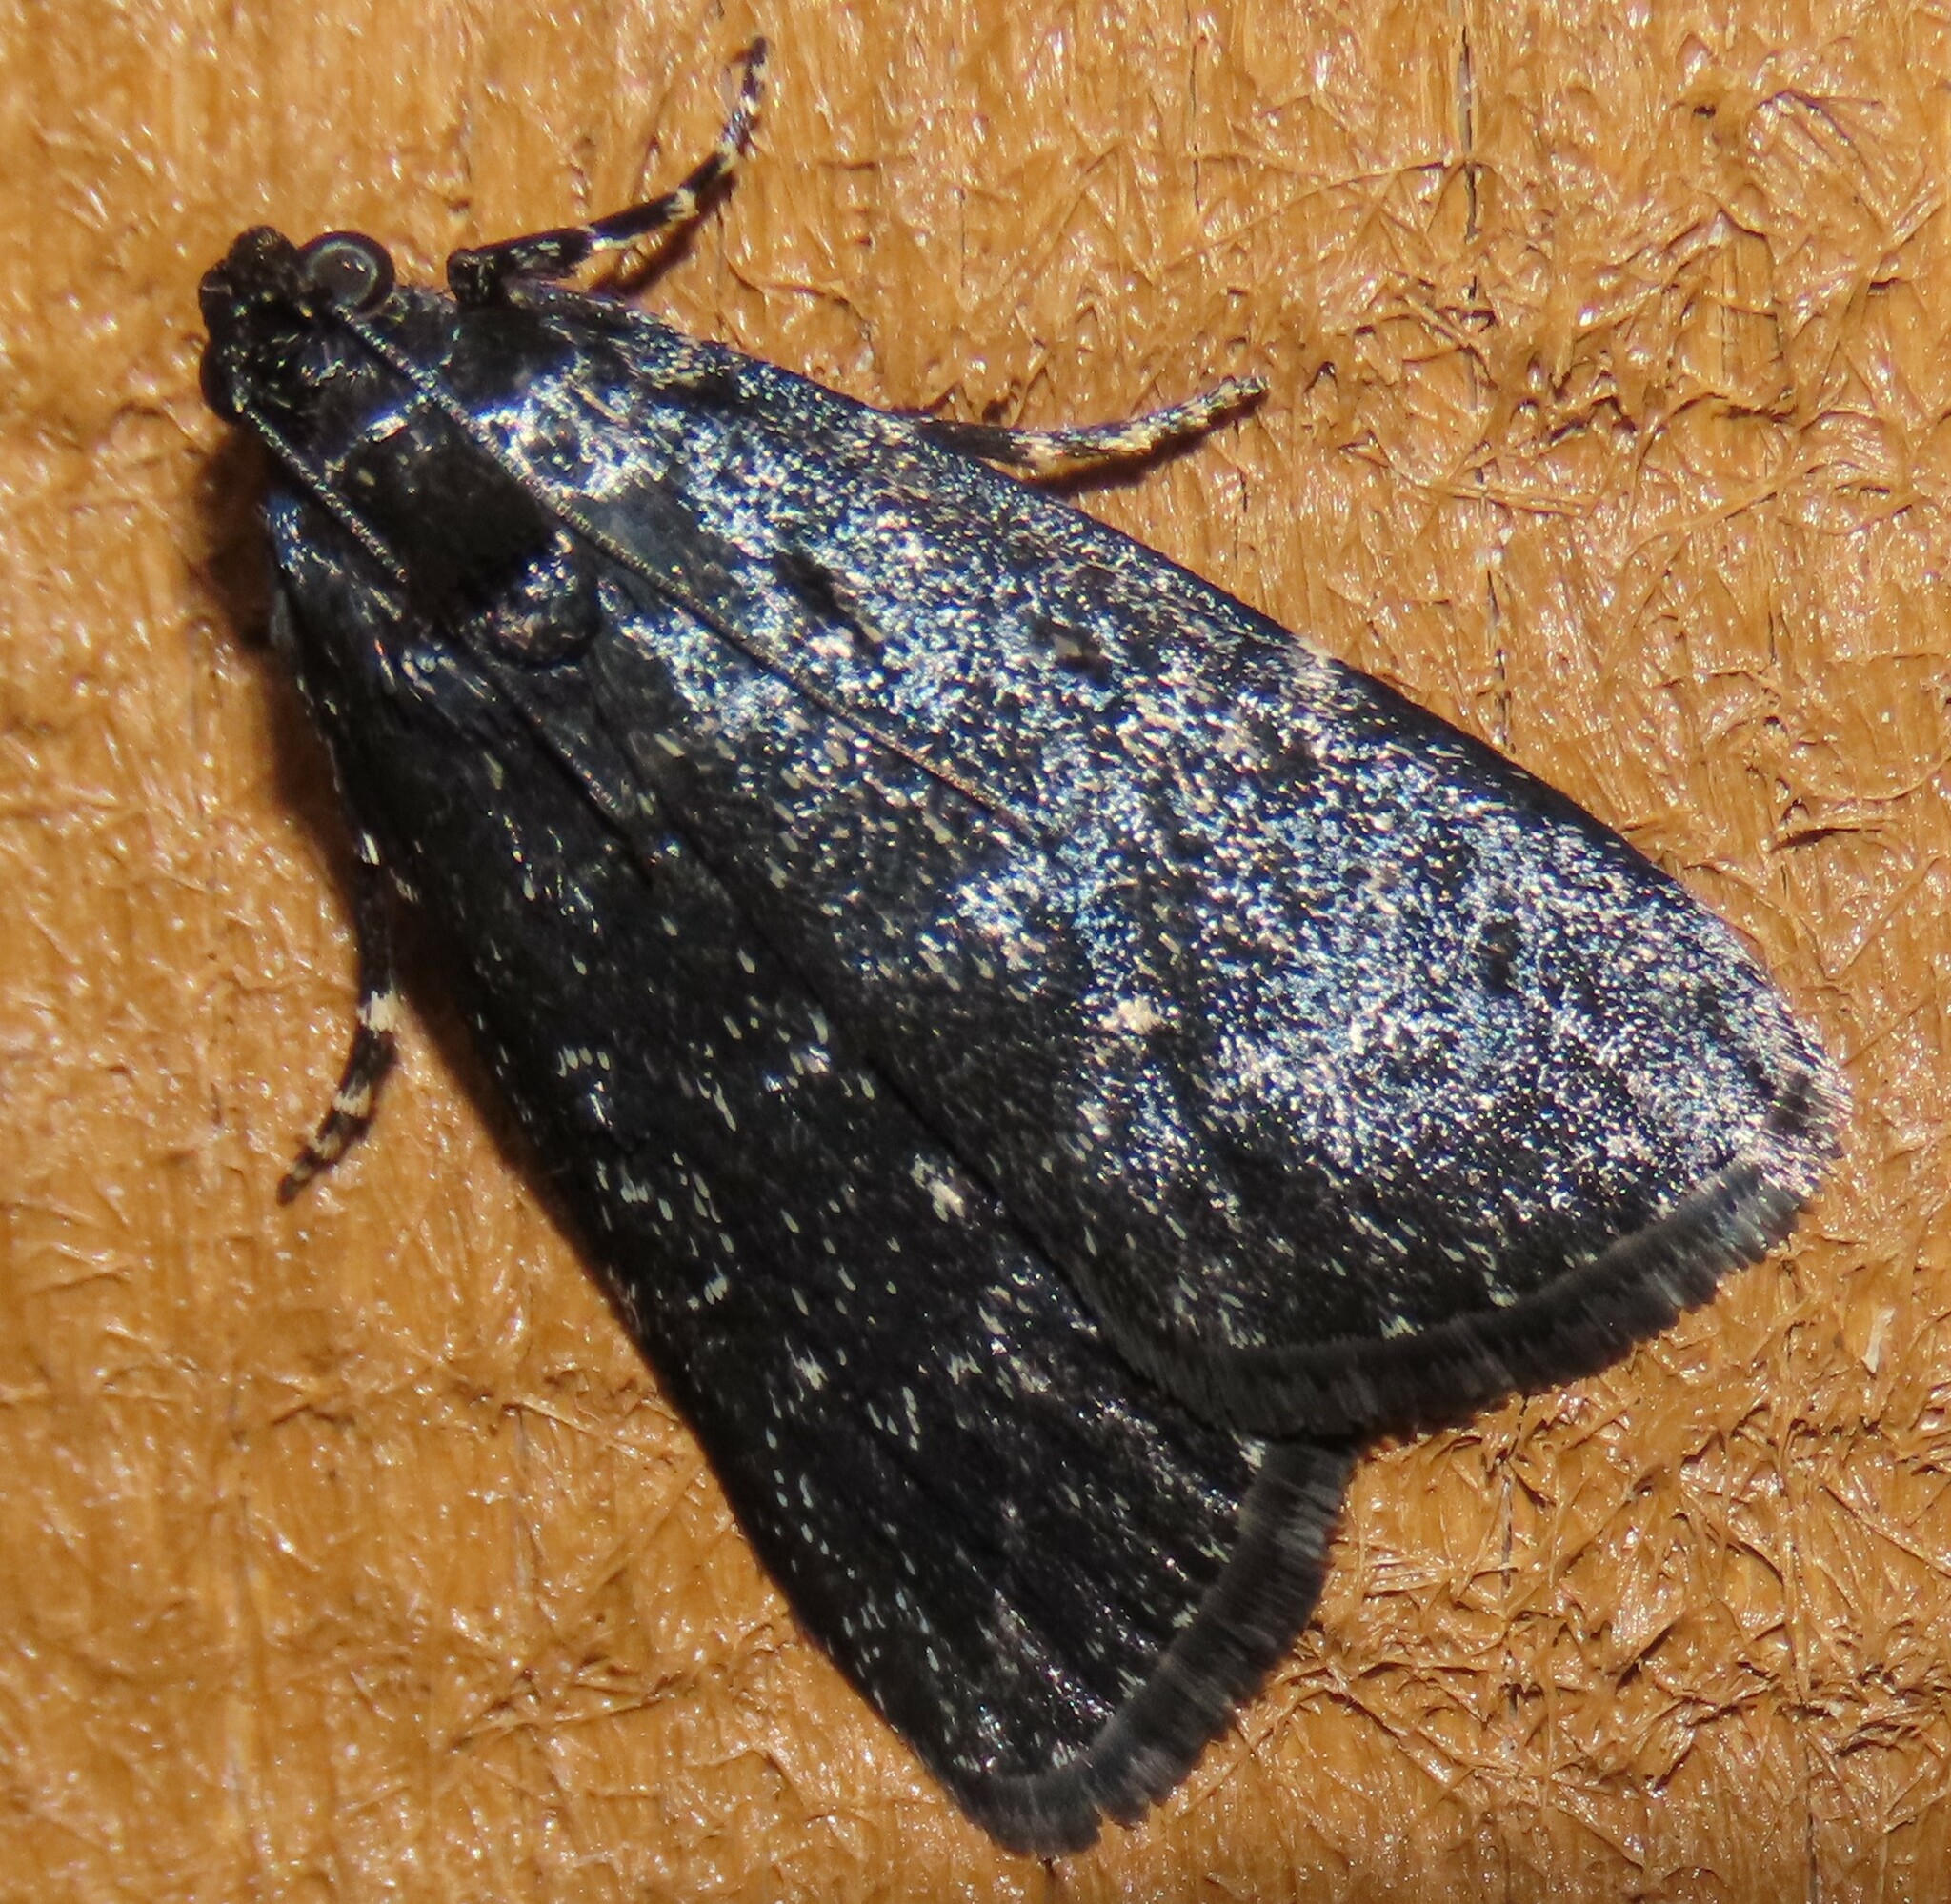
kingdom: Animalia
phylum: Arthropoda
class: Insecta
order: Lepidoptera
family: Pyralidae
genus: Stericta
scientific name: Stericta carbonalis
